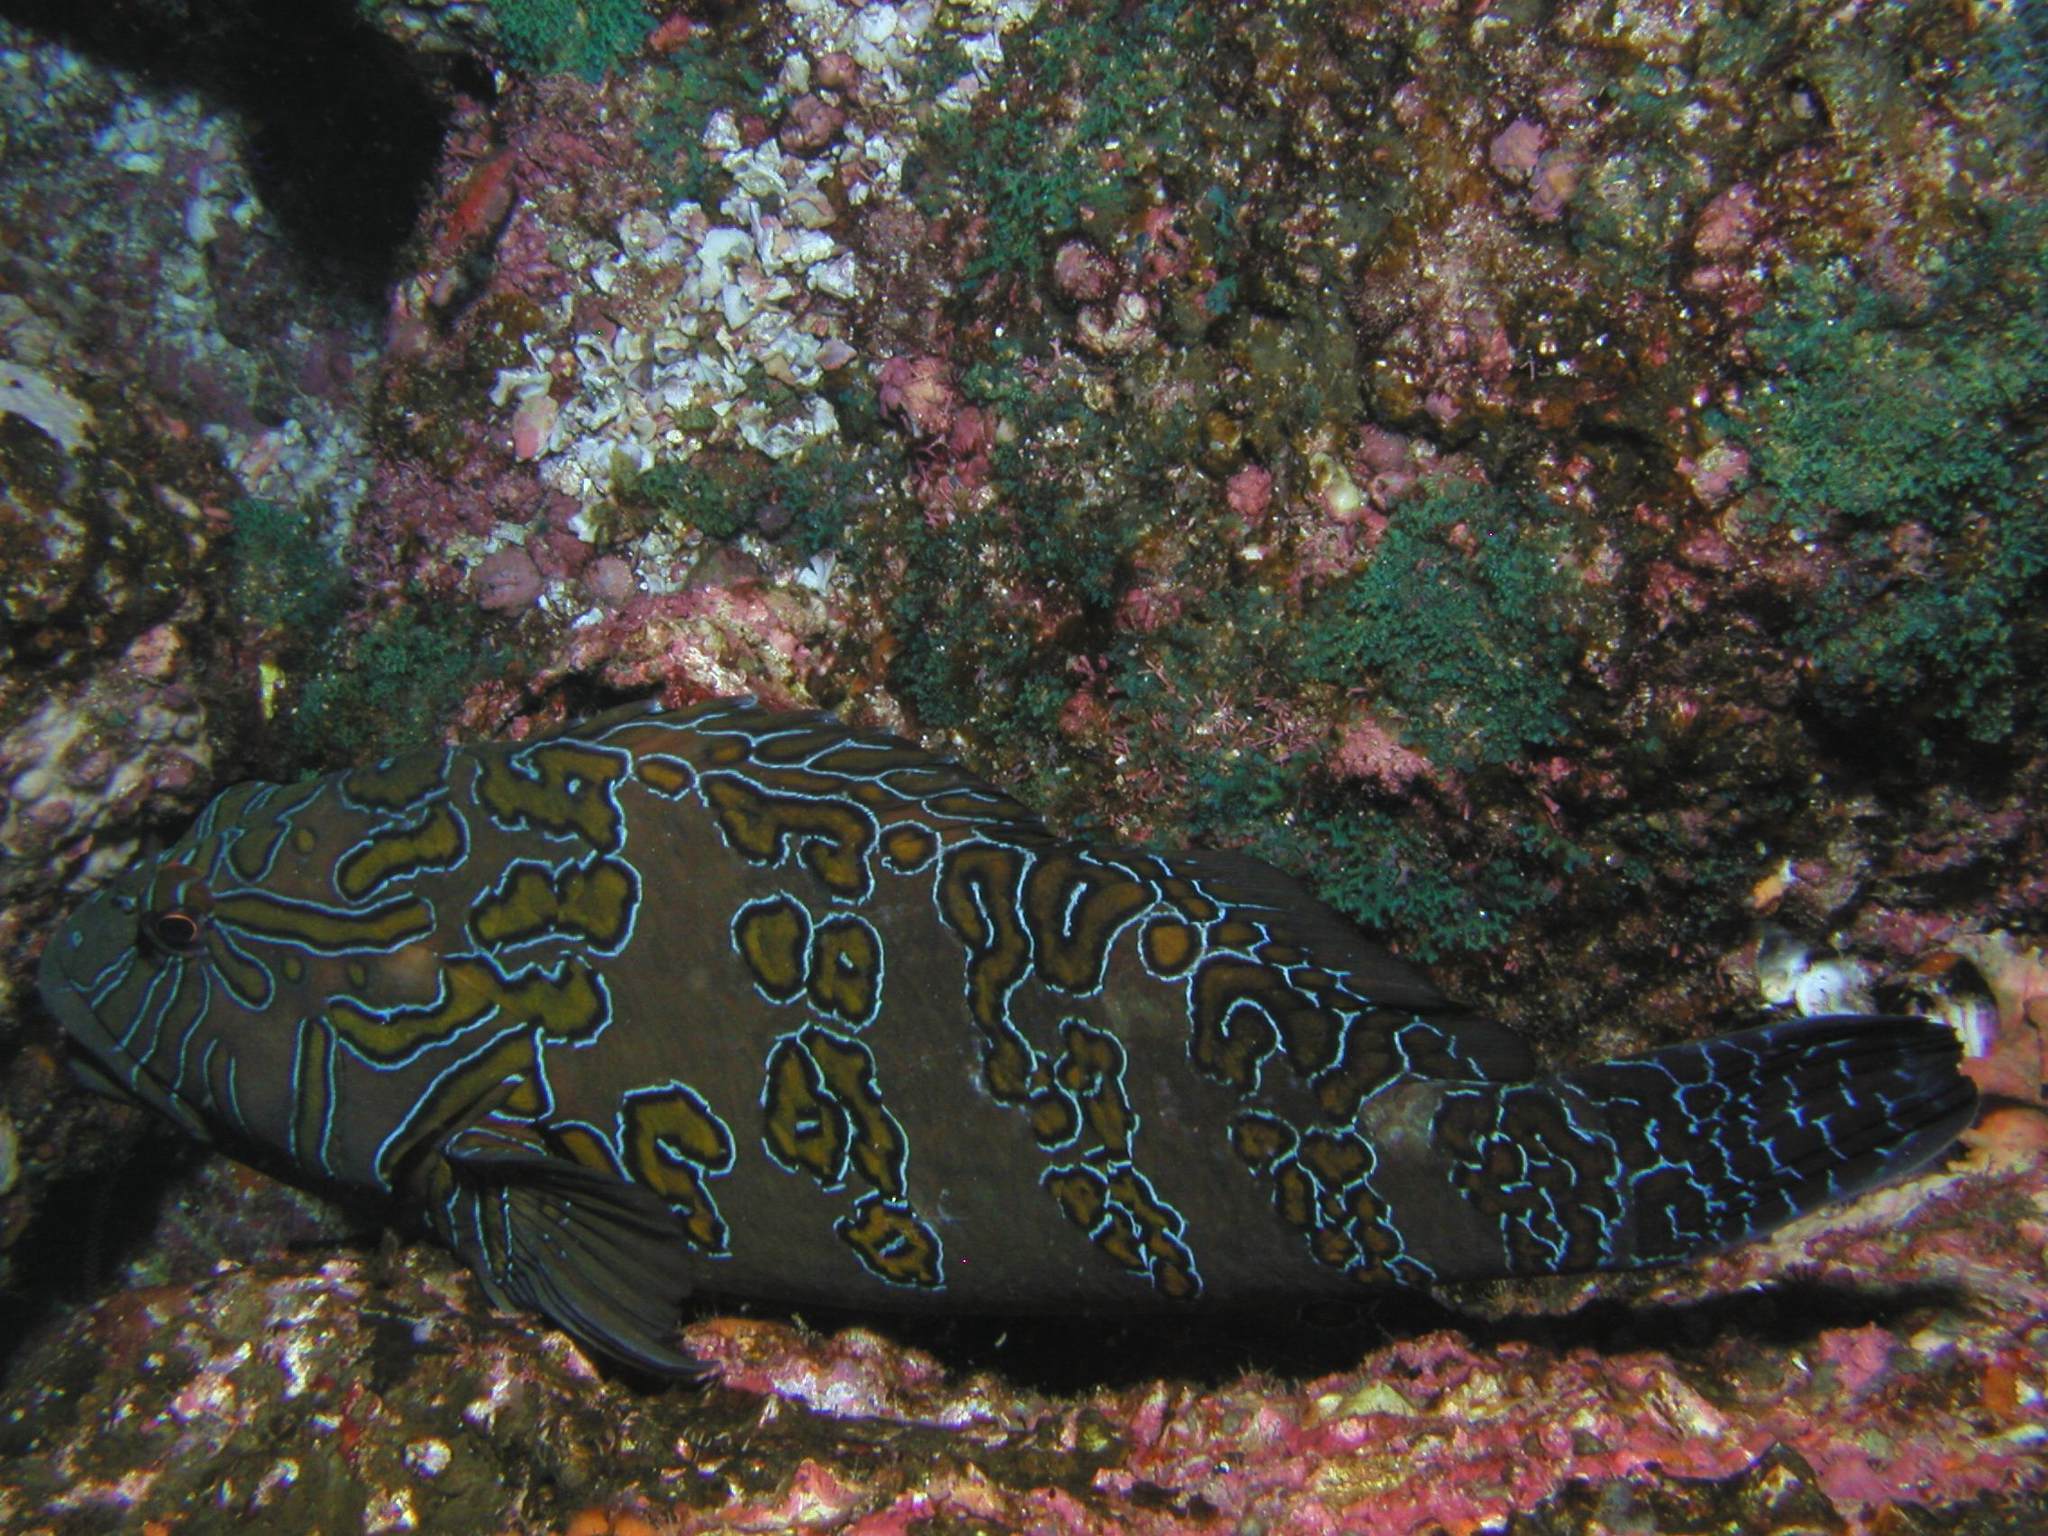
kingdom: Animalia
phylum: Chordata
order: Perciformes
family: Cirrhitidae
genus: Cirrhitus
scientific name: Cirrhitus rivulatus
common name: Giant hawkfish
